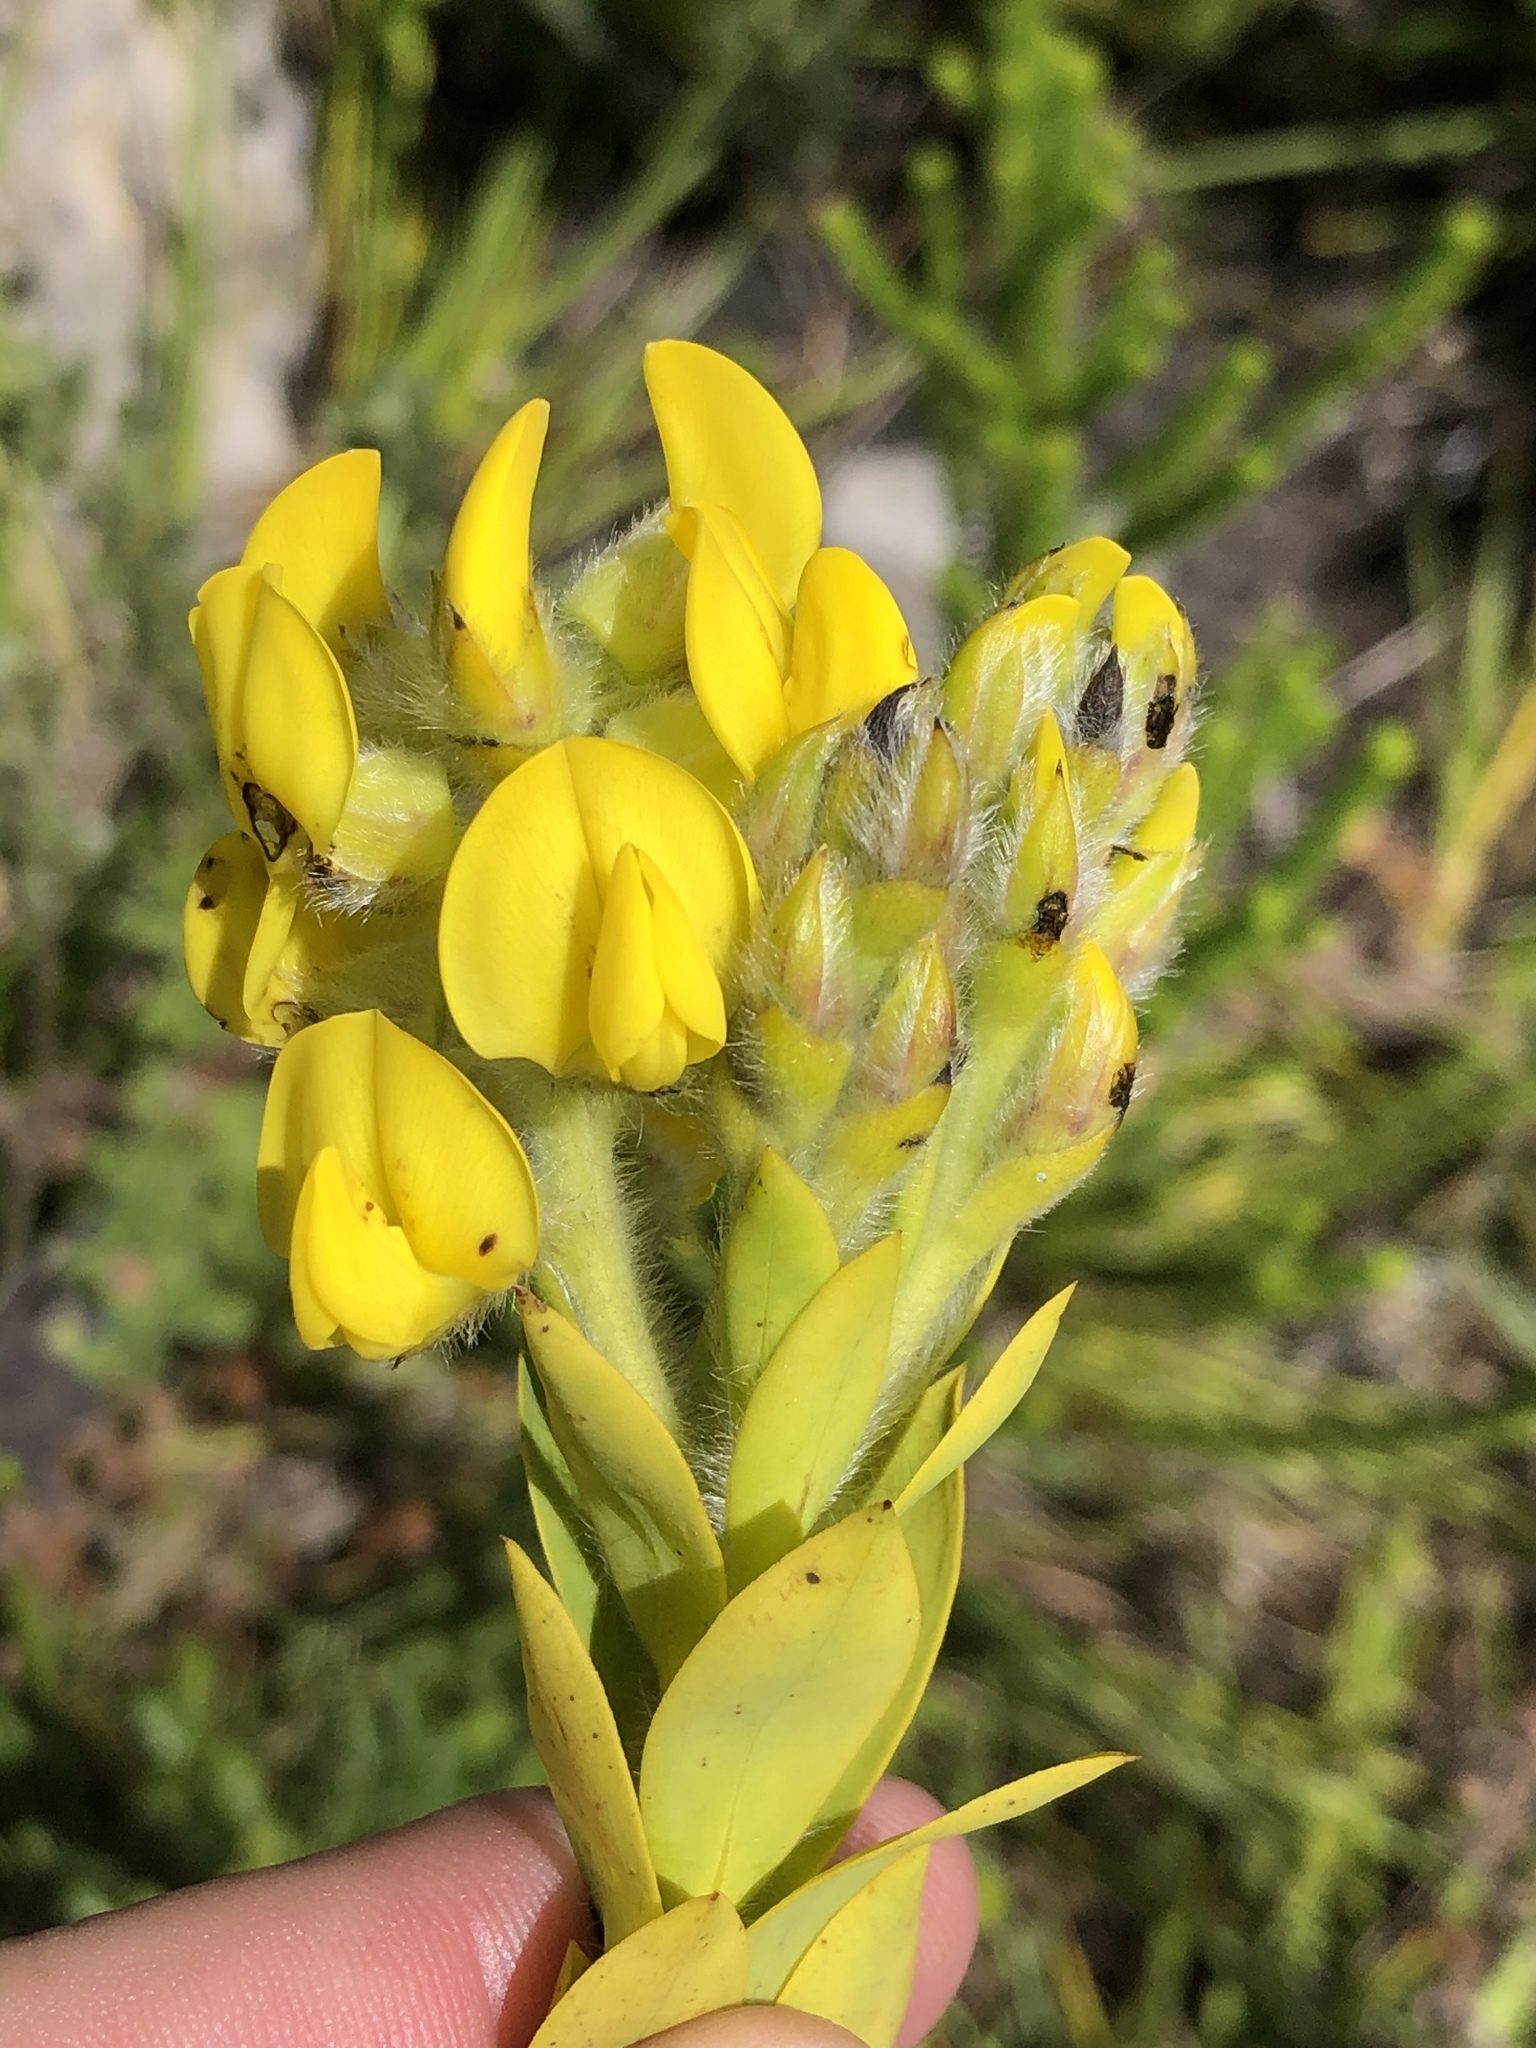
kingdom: Plantae
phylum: Tracheophyta
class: Magnoliopsida
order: Fabales
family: Fabaceae
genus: Liparia
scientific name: Liparia hirsuta
